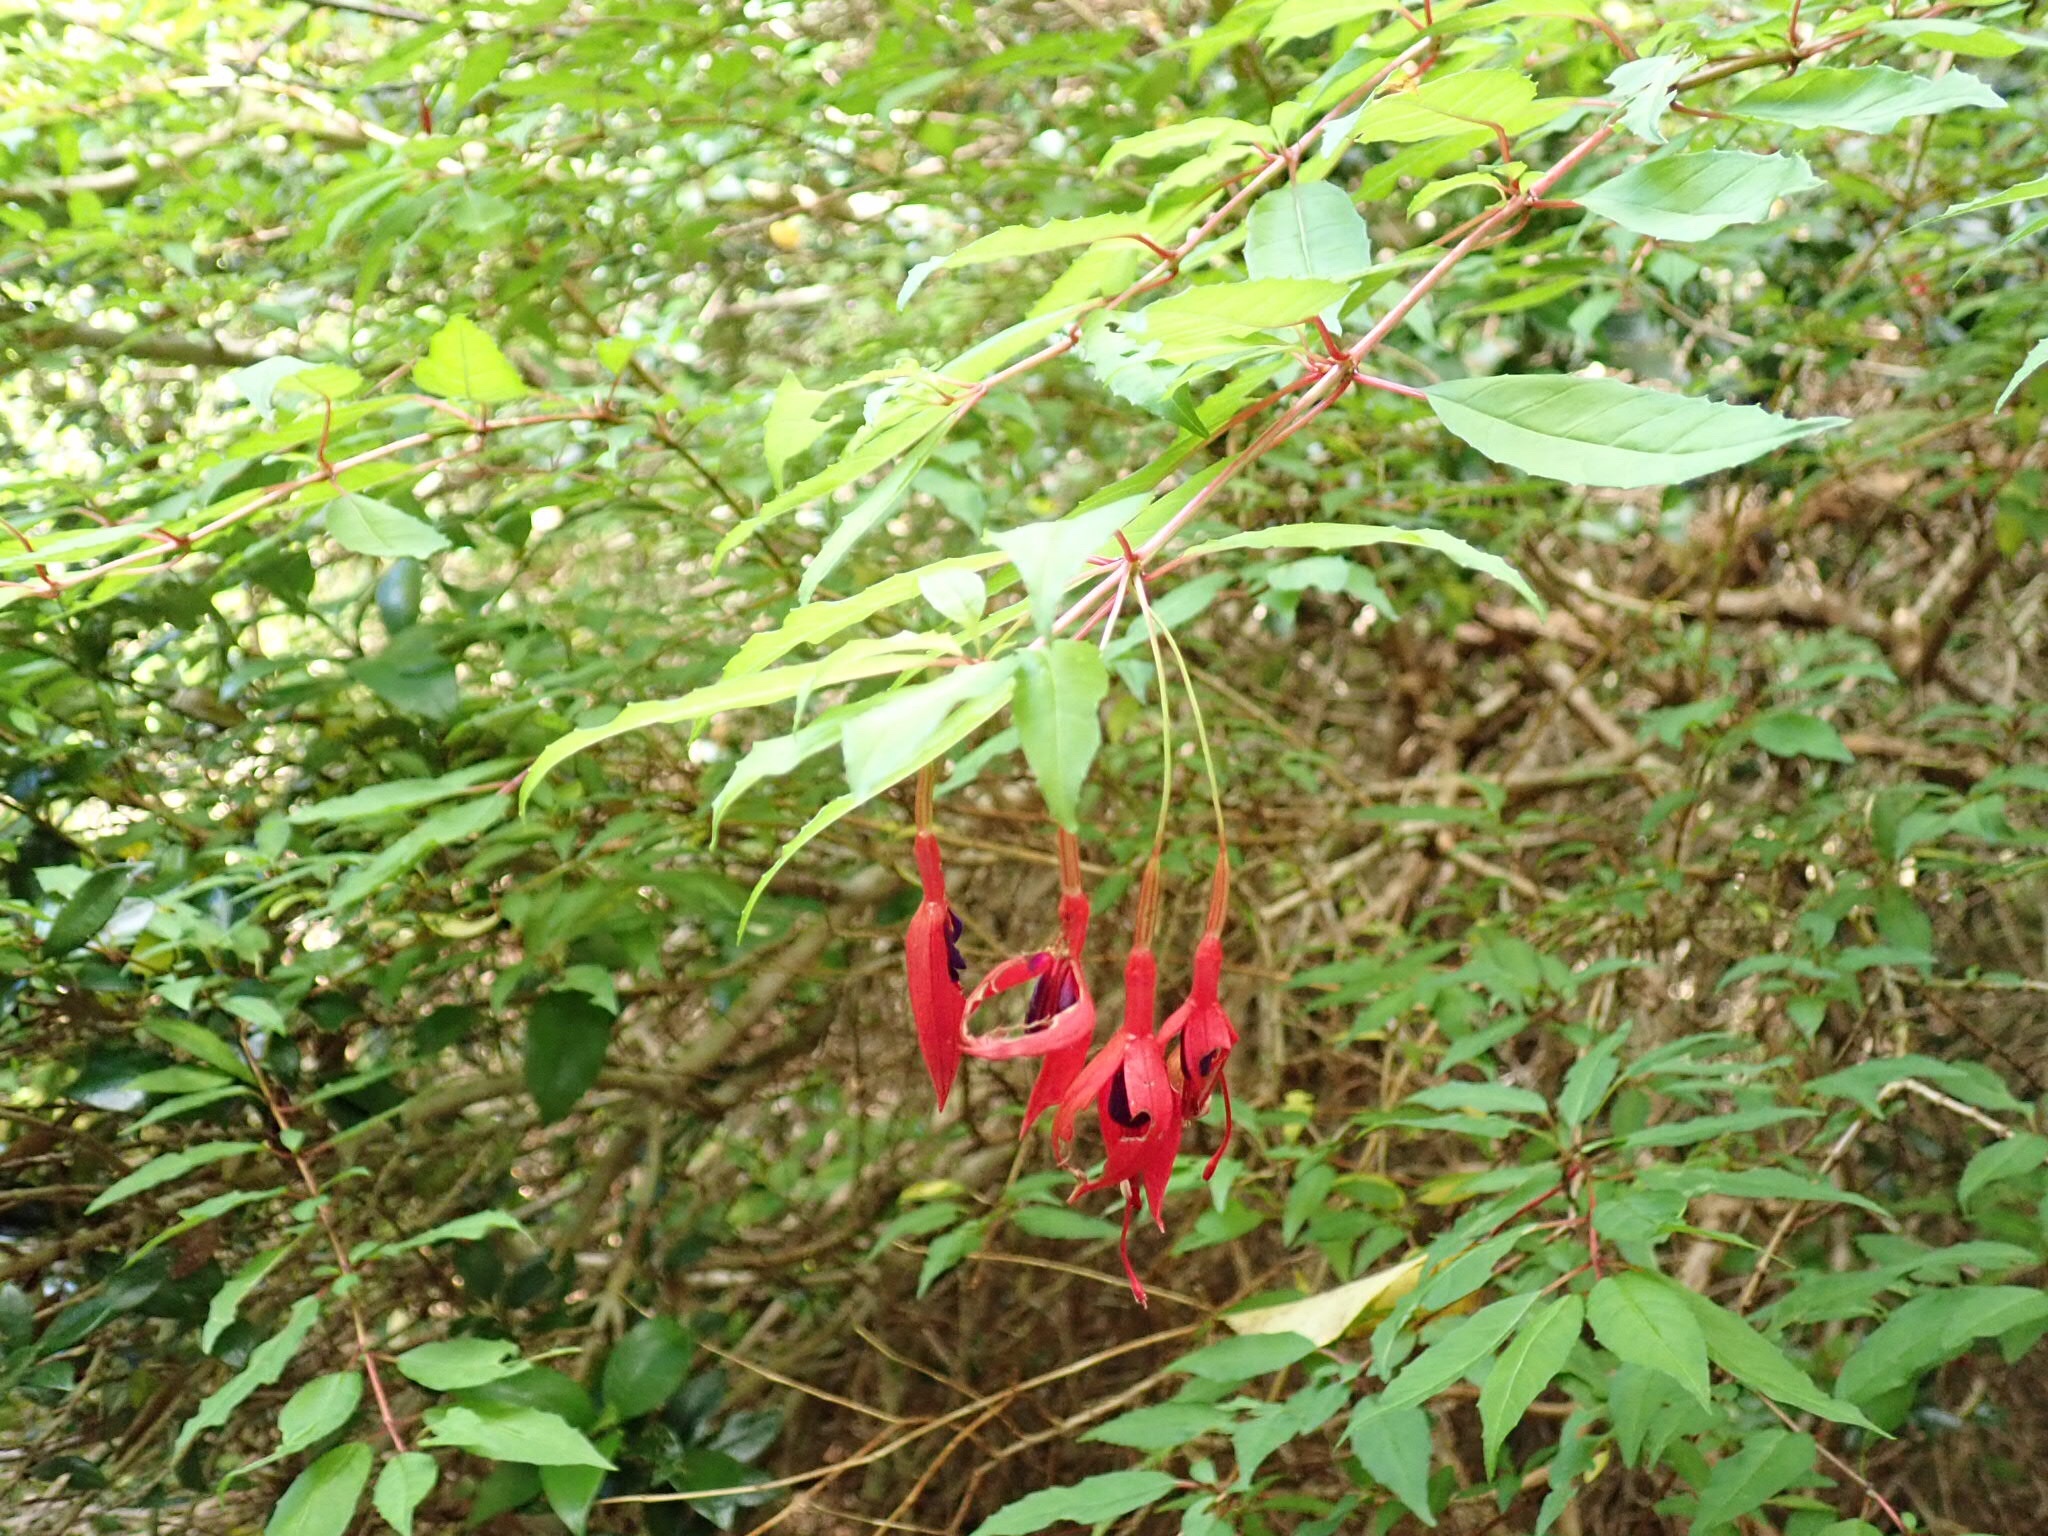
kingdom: Plantae
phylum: Tracheophyta
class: Magnoliopsida
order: Myrtales
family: Onagraceae
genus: Fuchsia
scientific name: Fuchsia magellanica
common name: Hardy fuchsia
